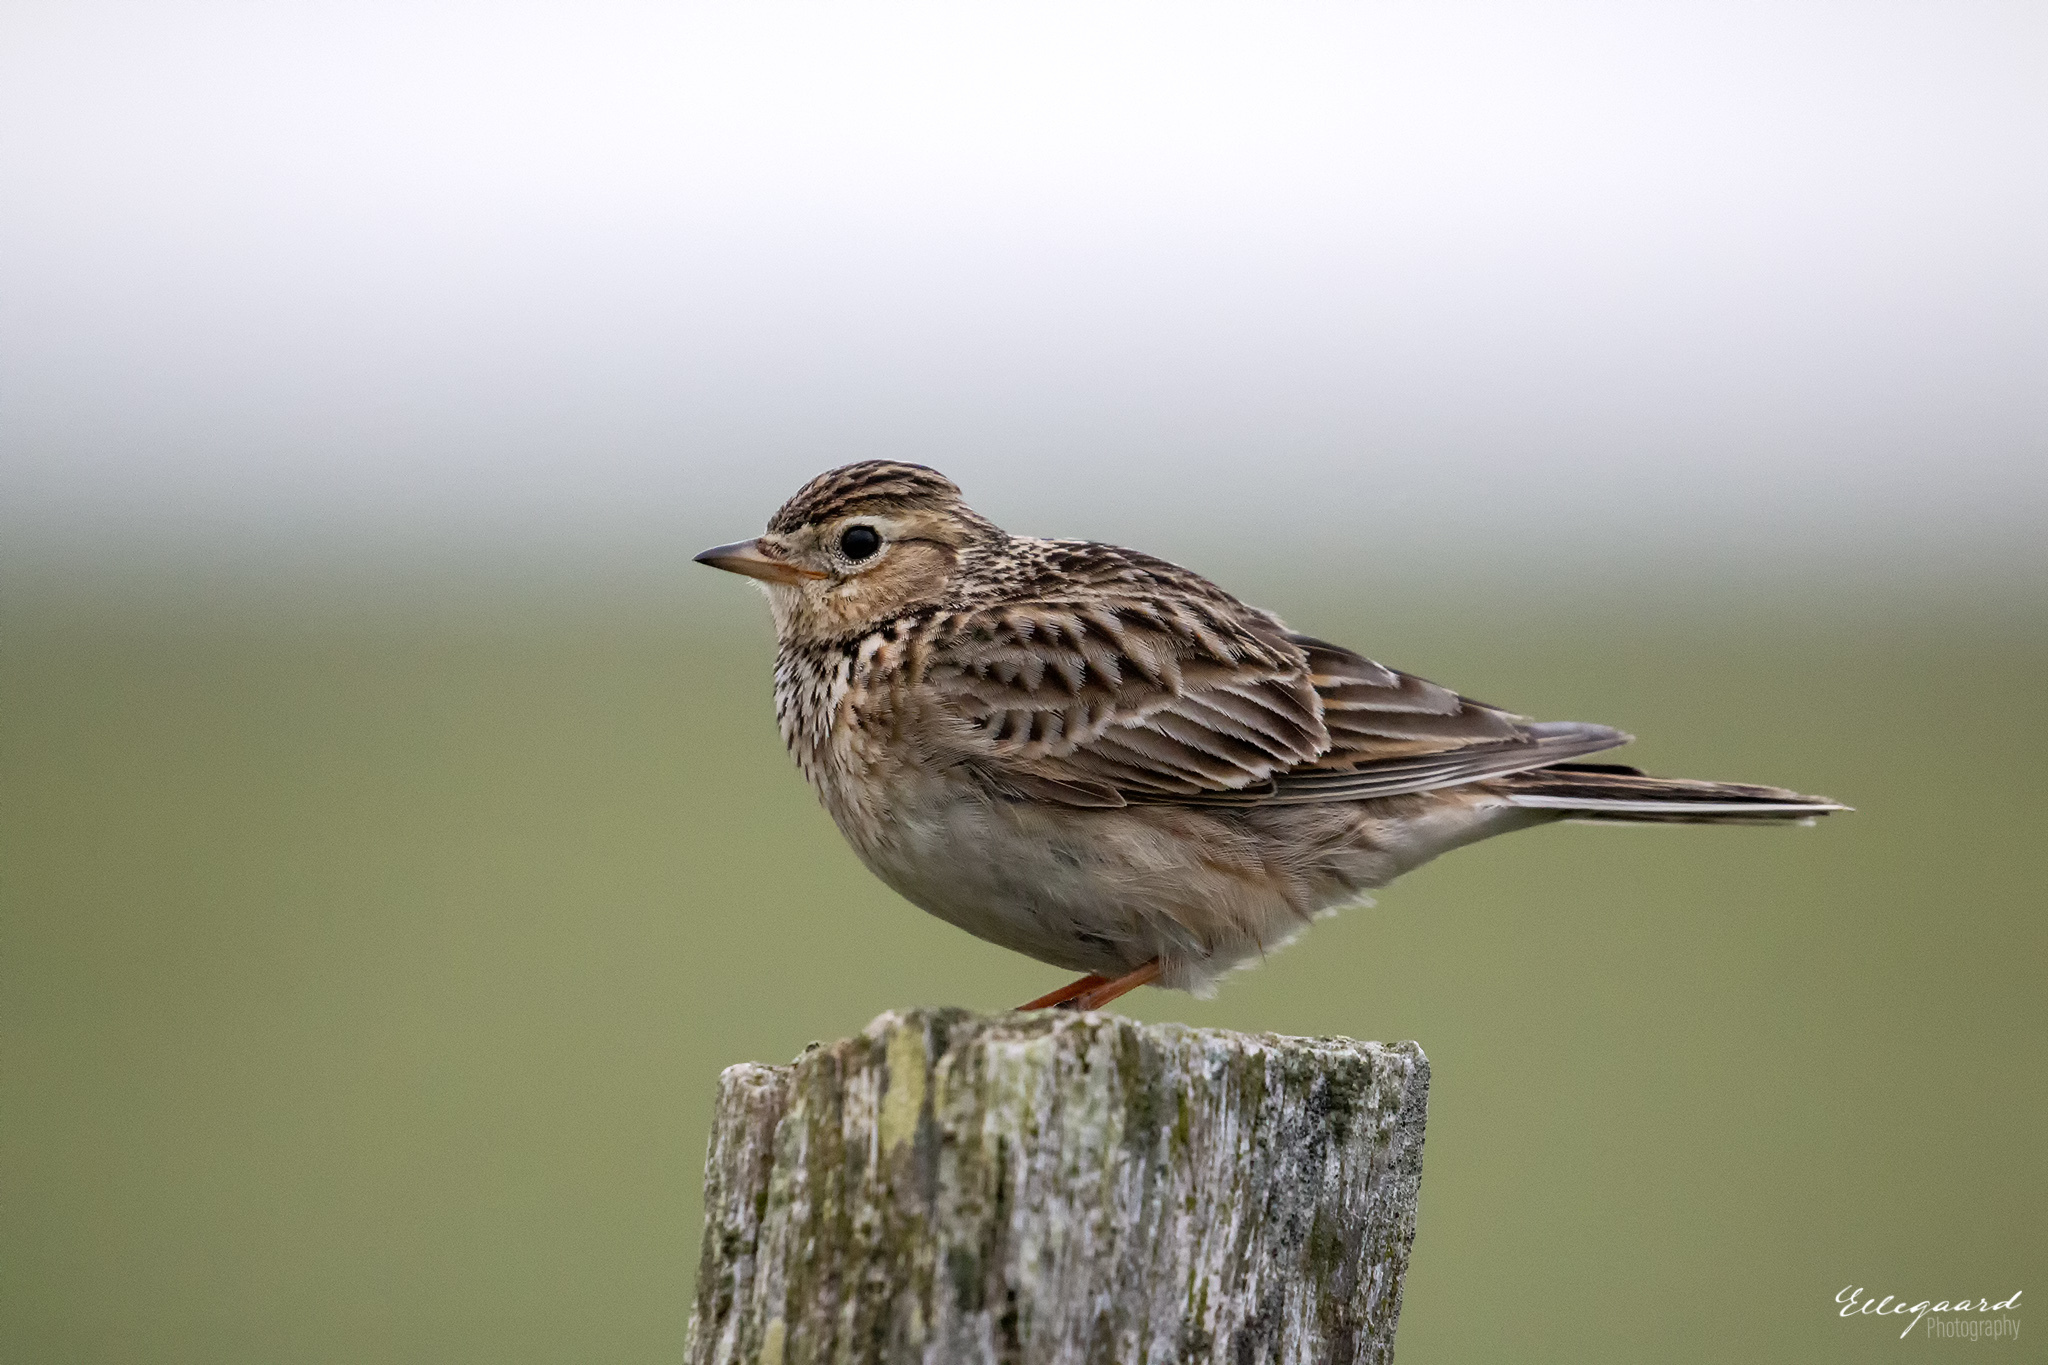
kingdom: Animalia
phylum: Chordata
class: Aves
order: Passeriformes
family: Alaudidae
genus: Alauda
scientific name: Alauda arvensis
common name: Eurasian skylark
